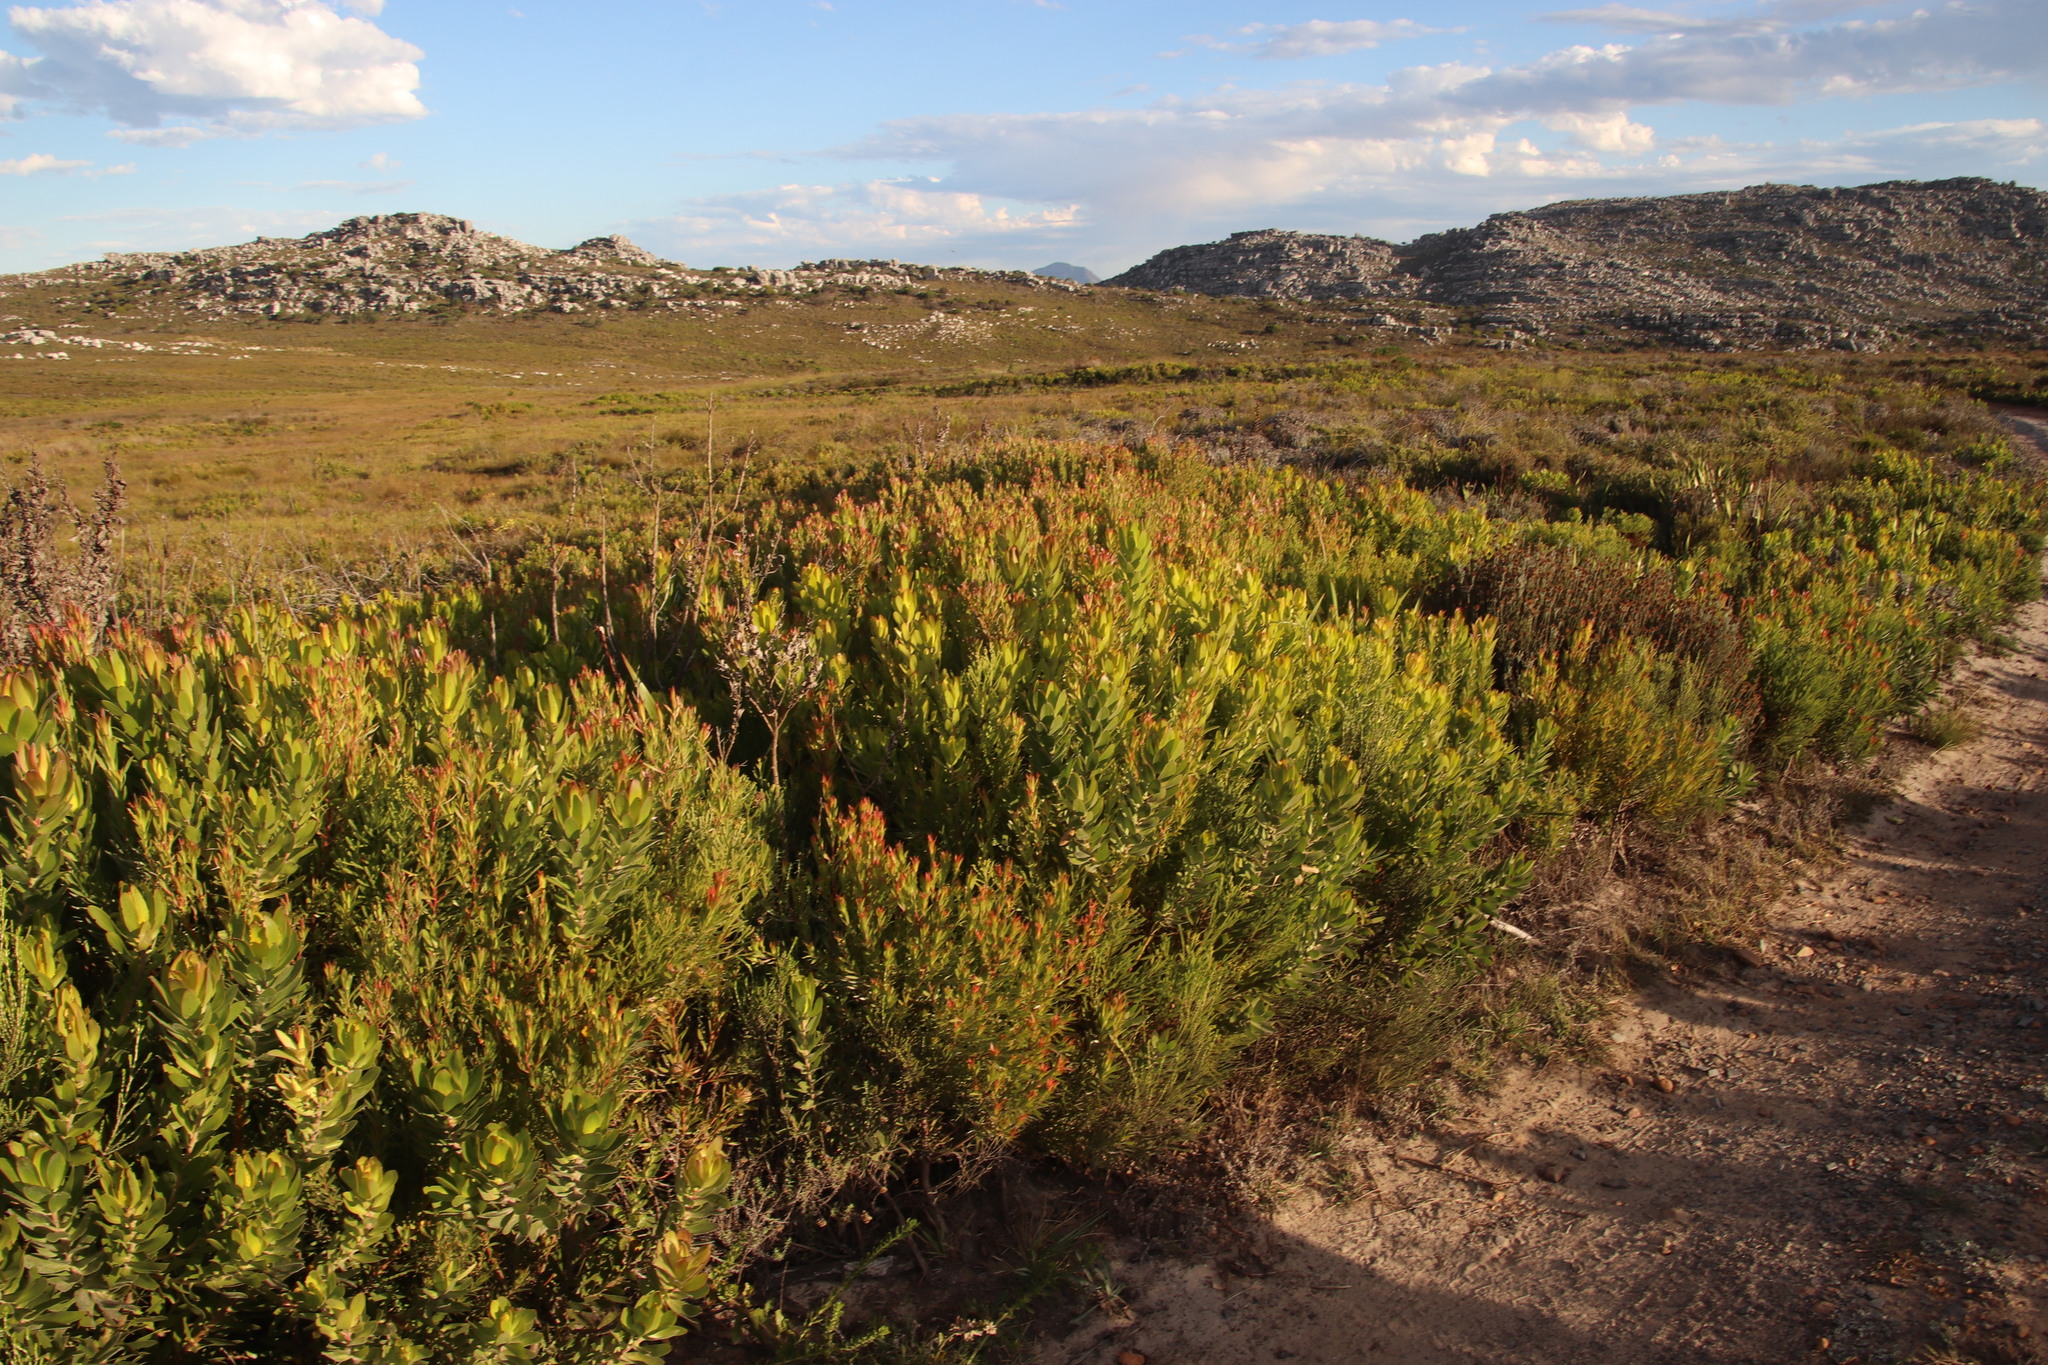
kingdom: Plantae
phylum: Tracheophyta
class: Magnoliopsida
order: Proteales
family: Proteaceae
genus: Leucadendron
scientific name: Leucadendron laureolum
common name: Golden sunshinebush
